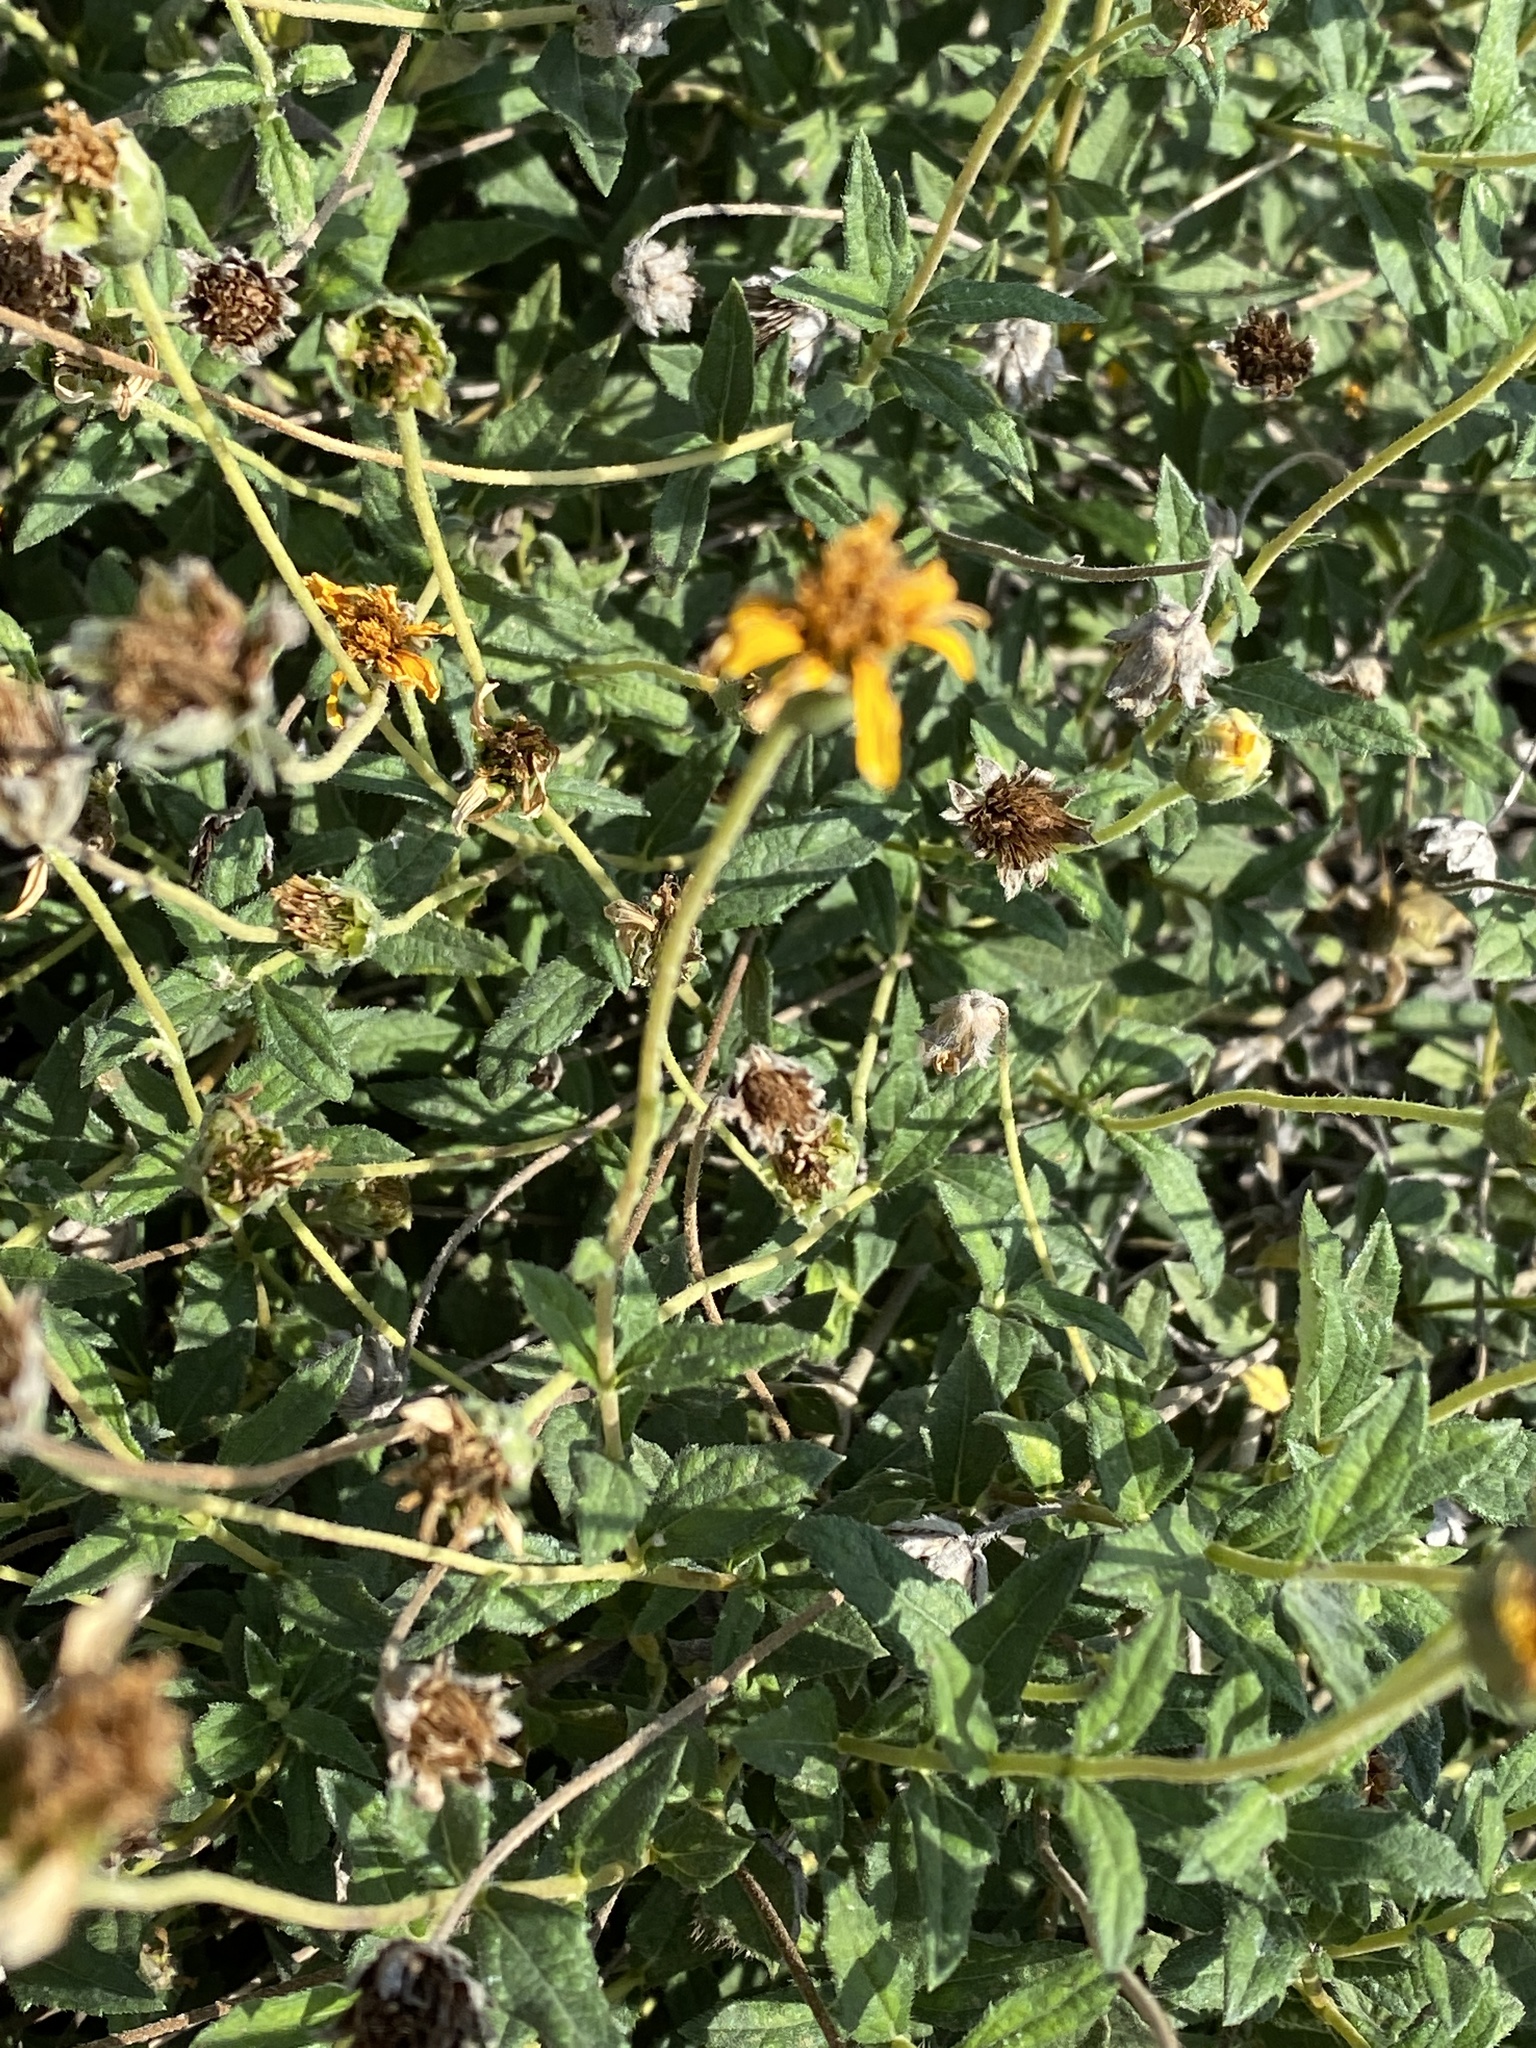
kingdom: Plantae
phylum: Tracheophyta
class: Magnoliopsida
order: Asterales
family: Asteraceae
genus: Wedelia
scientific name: Wedelia acapulcensis
